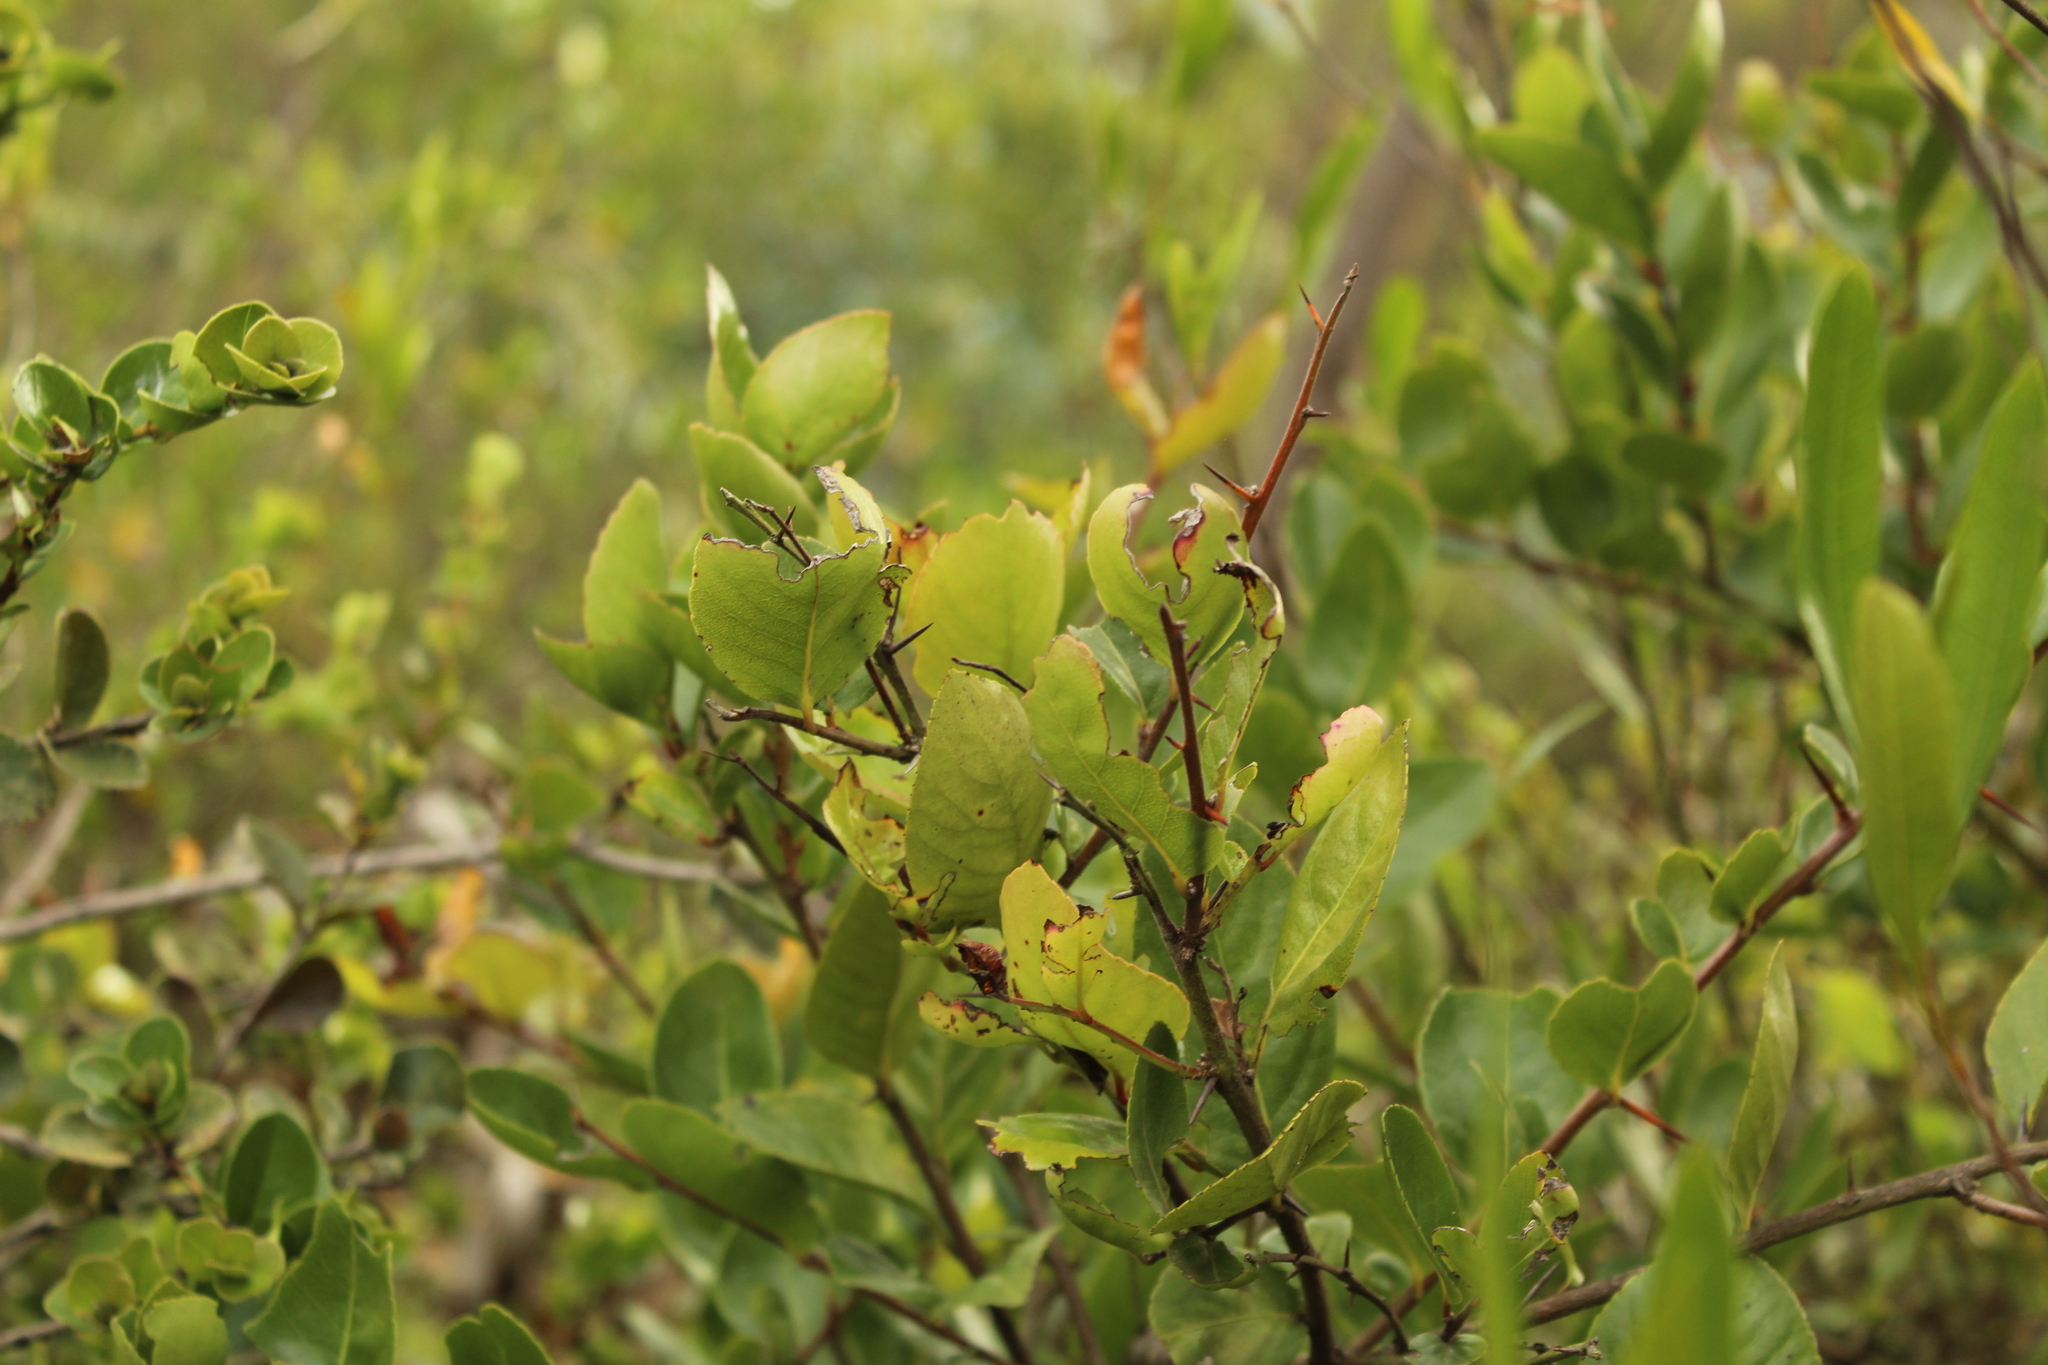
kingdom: Plantae
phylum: Tracheophyta
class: Magnoliopsida
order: Malpighiales
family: Salicaceae
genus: Xylosma
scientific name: Xylosma spiculifera
